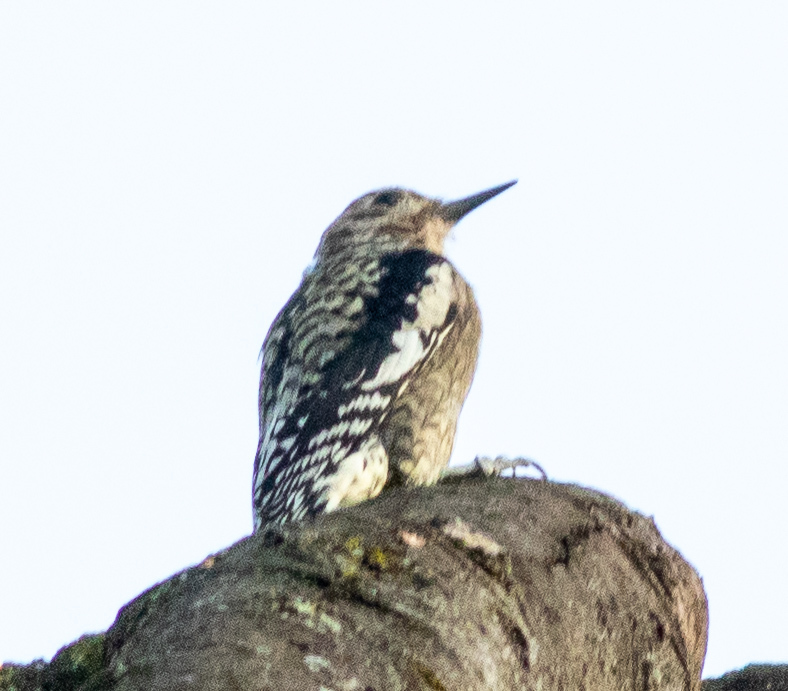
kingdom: Animalia
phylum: Chordata
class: Aves
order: Piciformes
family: Picidae
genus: Sphyrapicus
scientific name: Sphyrapicus varius
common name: Yellow-bellied sapsucker
